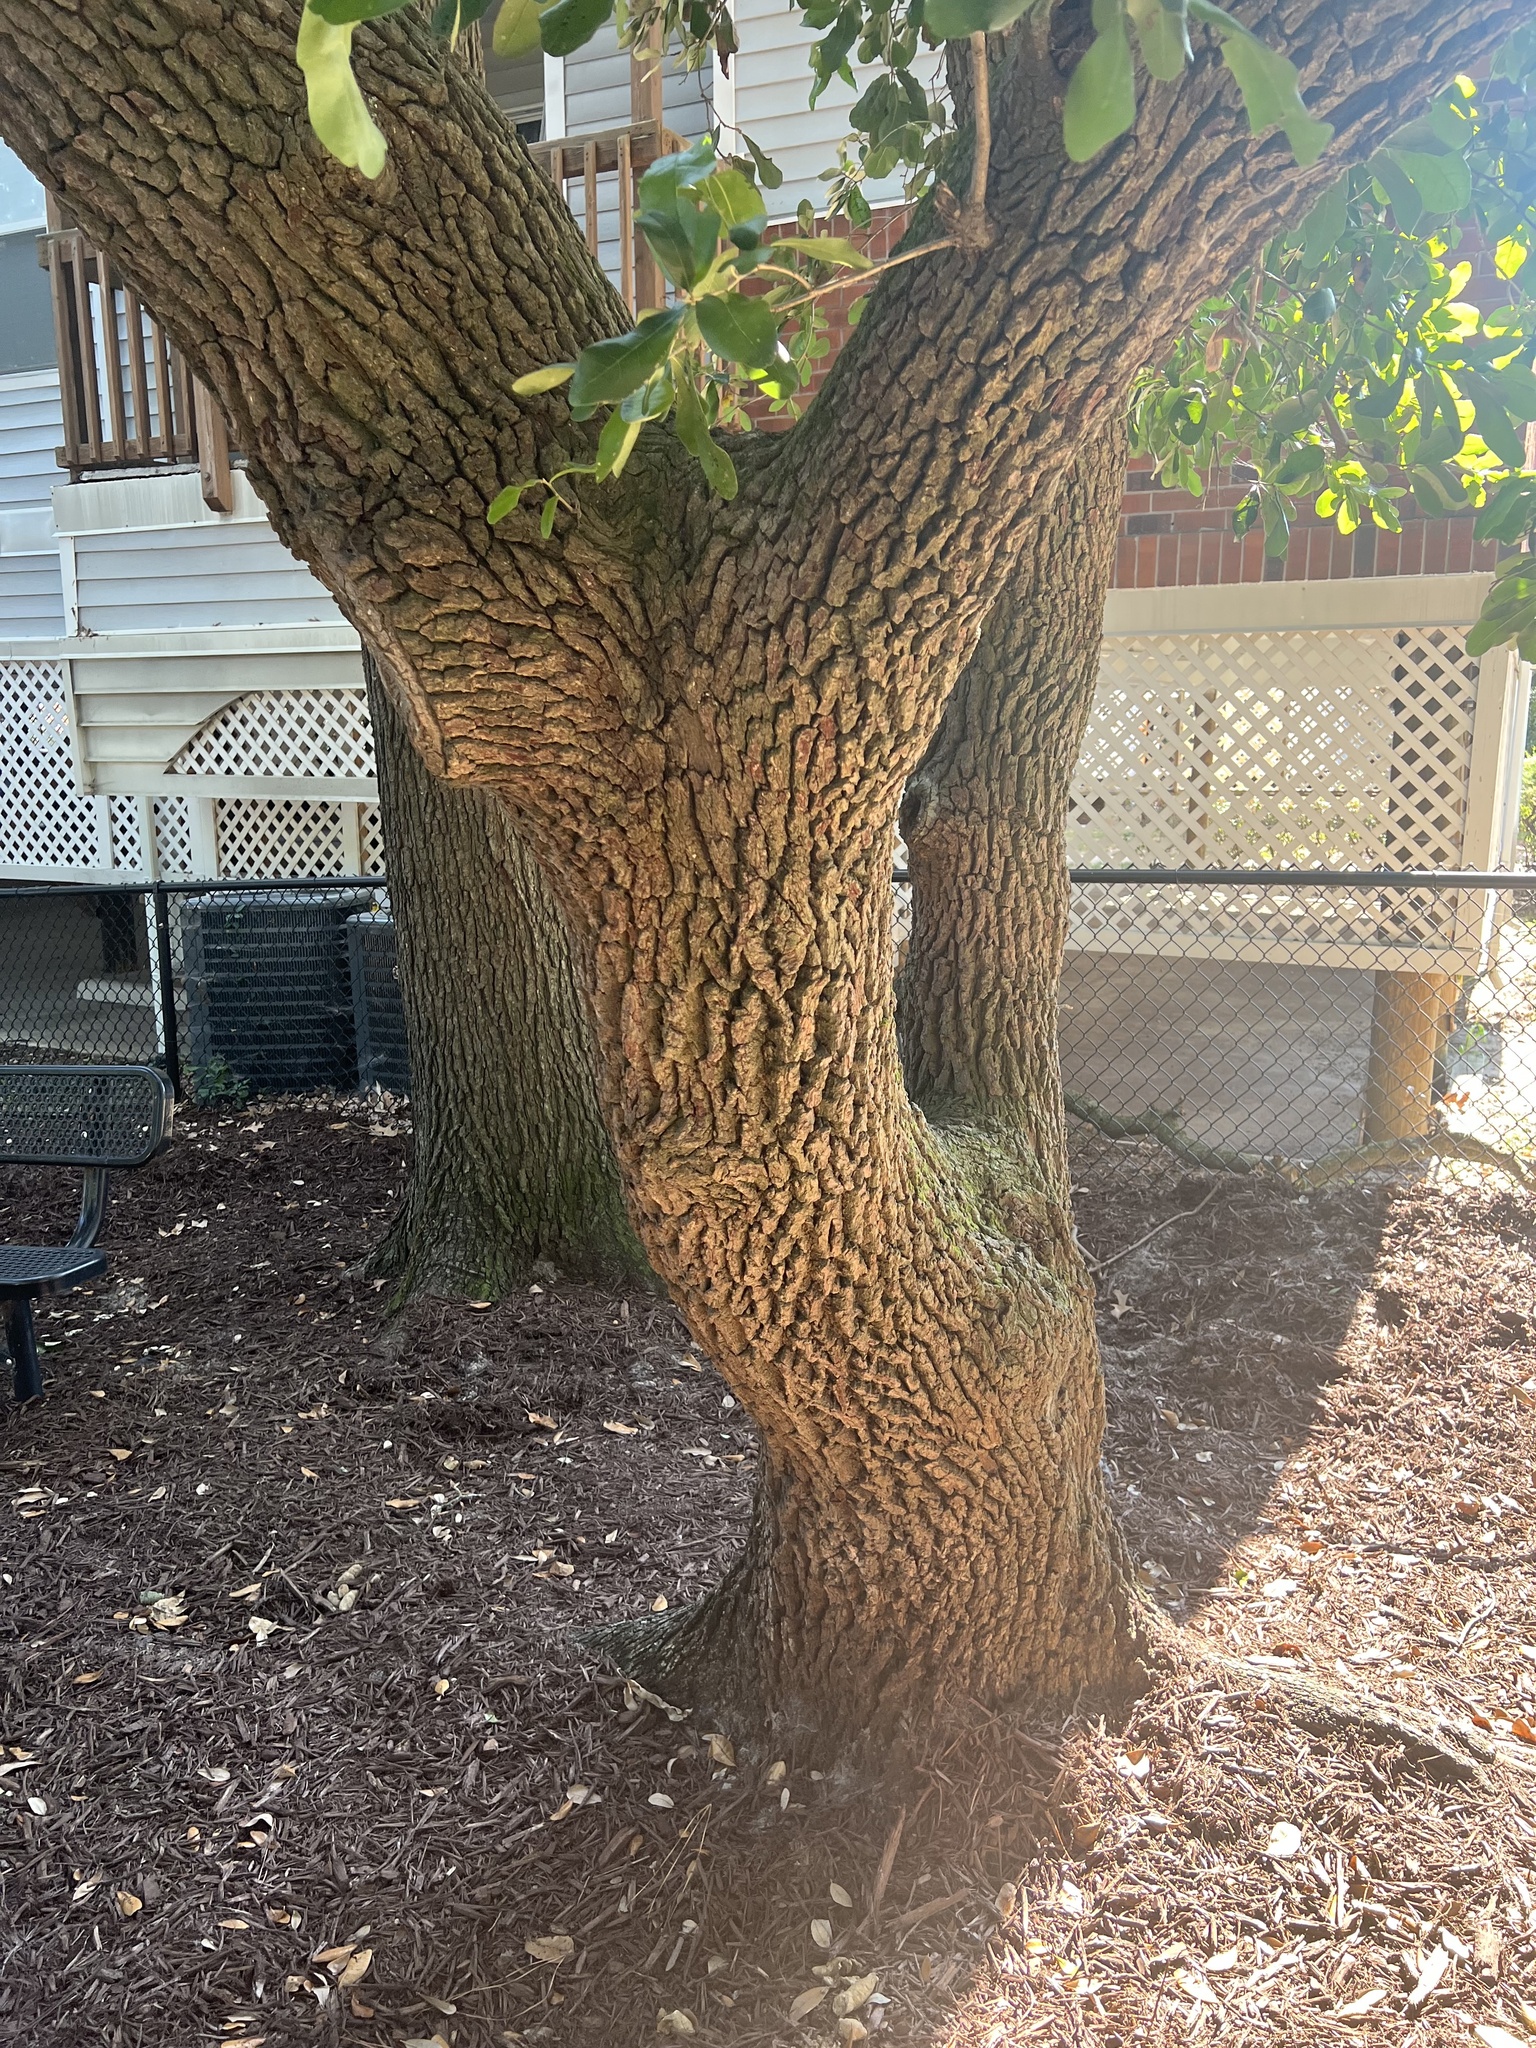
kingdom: Plantae
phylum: Tracheophyta
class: Magnoliopsida
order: Fagales
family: Fagaceae
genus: Quercus
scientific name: Quercus virginiana
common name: Southern live oak
